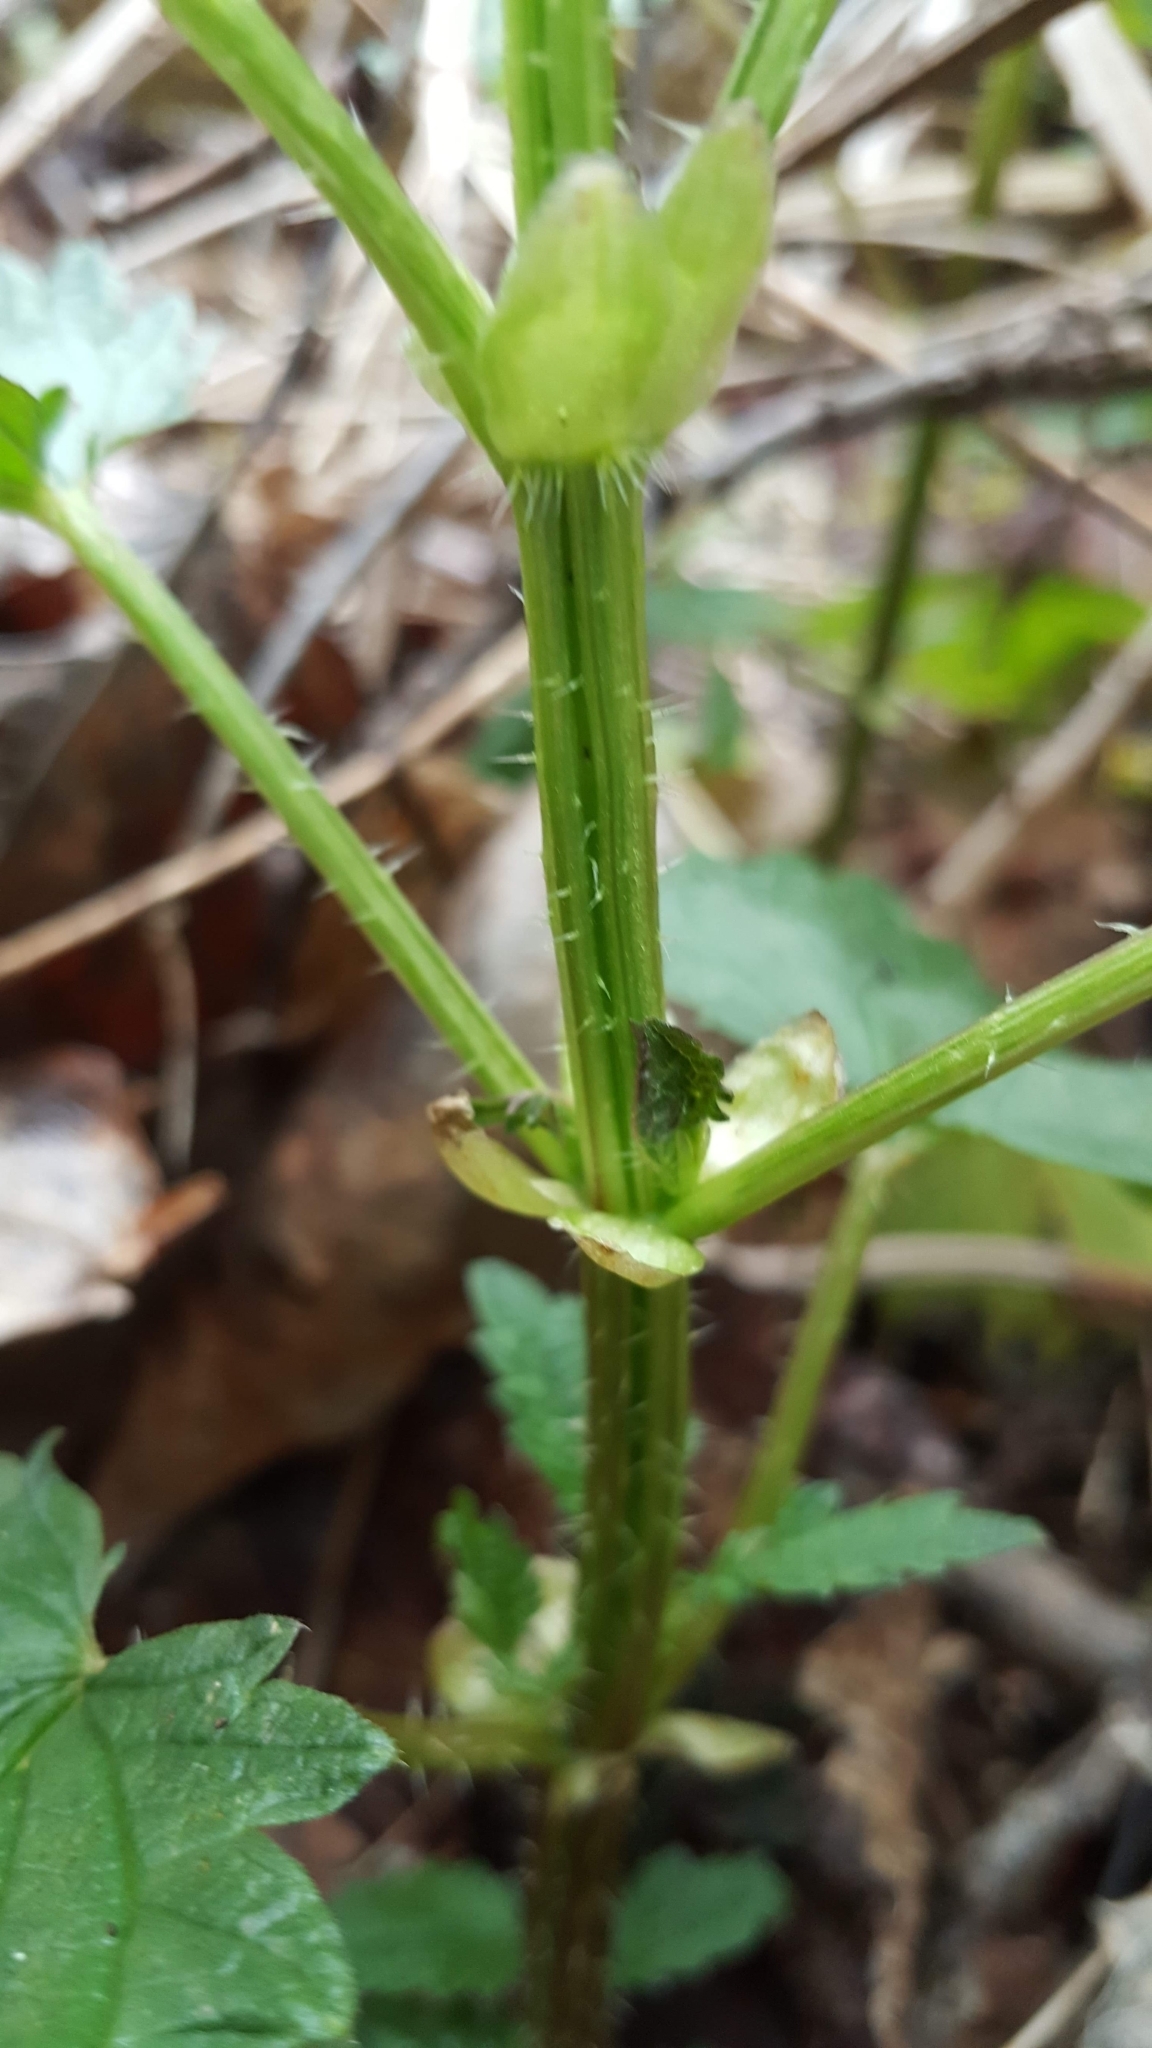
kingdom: Plantae
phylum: Tracheophyta
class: Magnoliopsida
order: Lamiales
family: Lamiaceae
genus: Lamium
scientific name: Lamium purpureum
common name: Red dead-nettle
